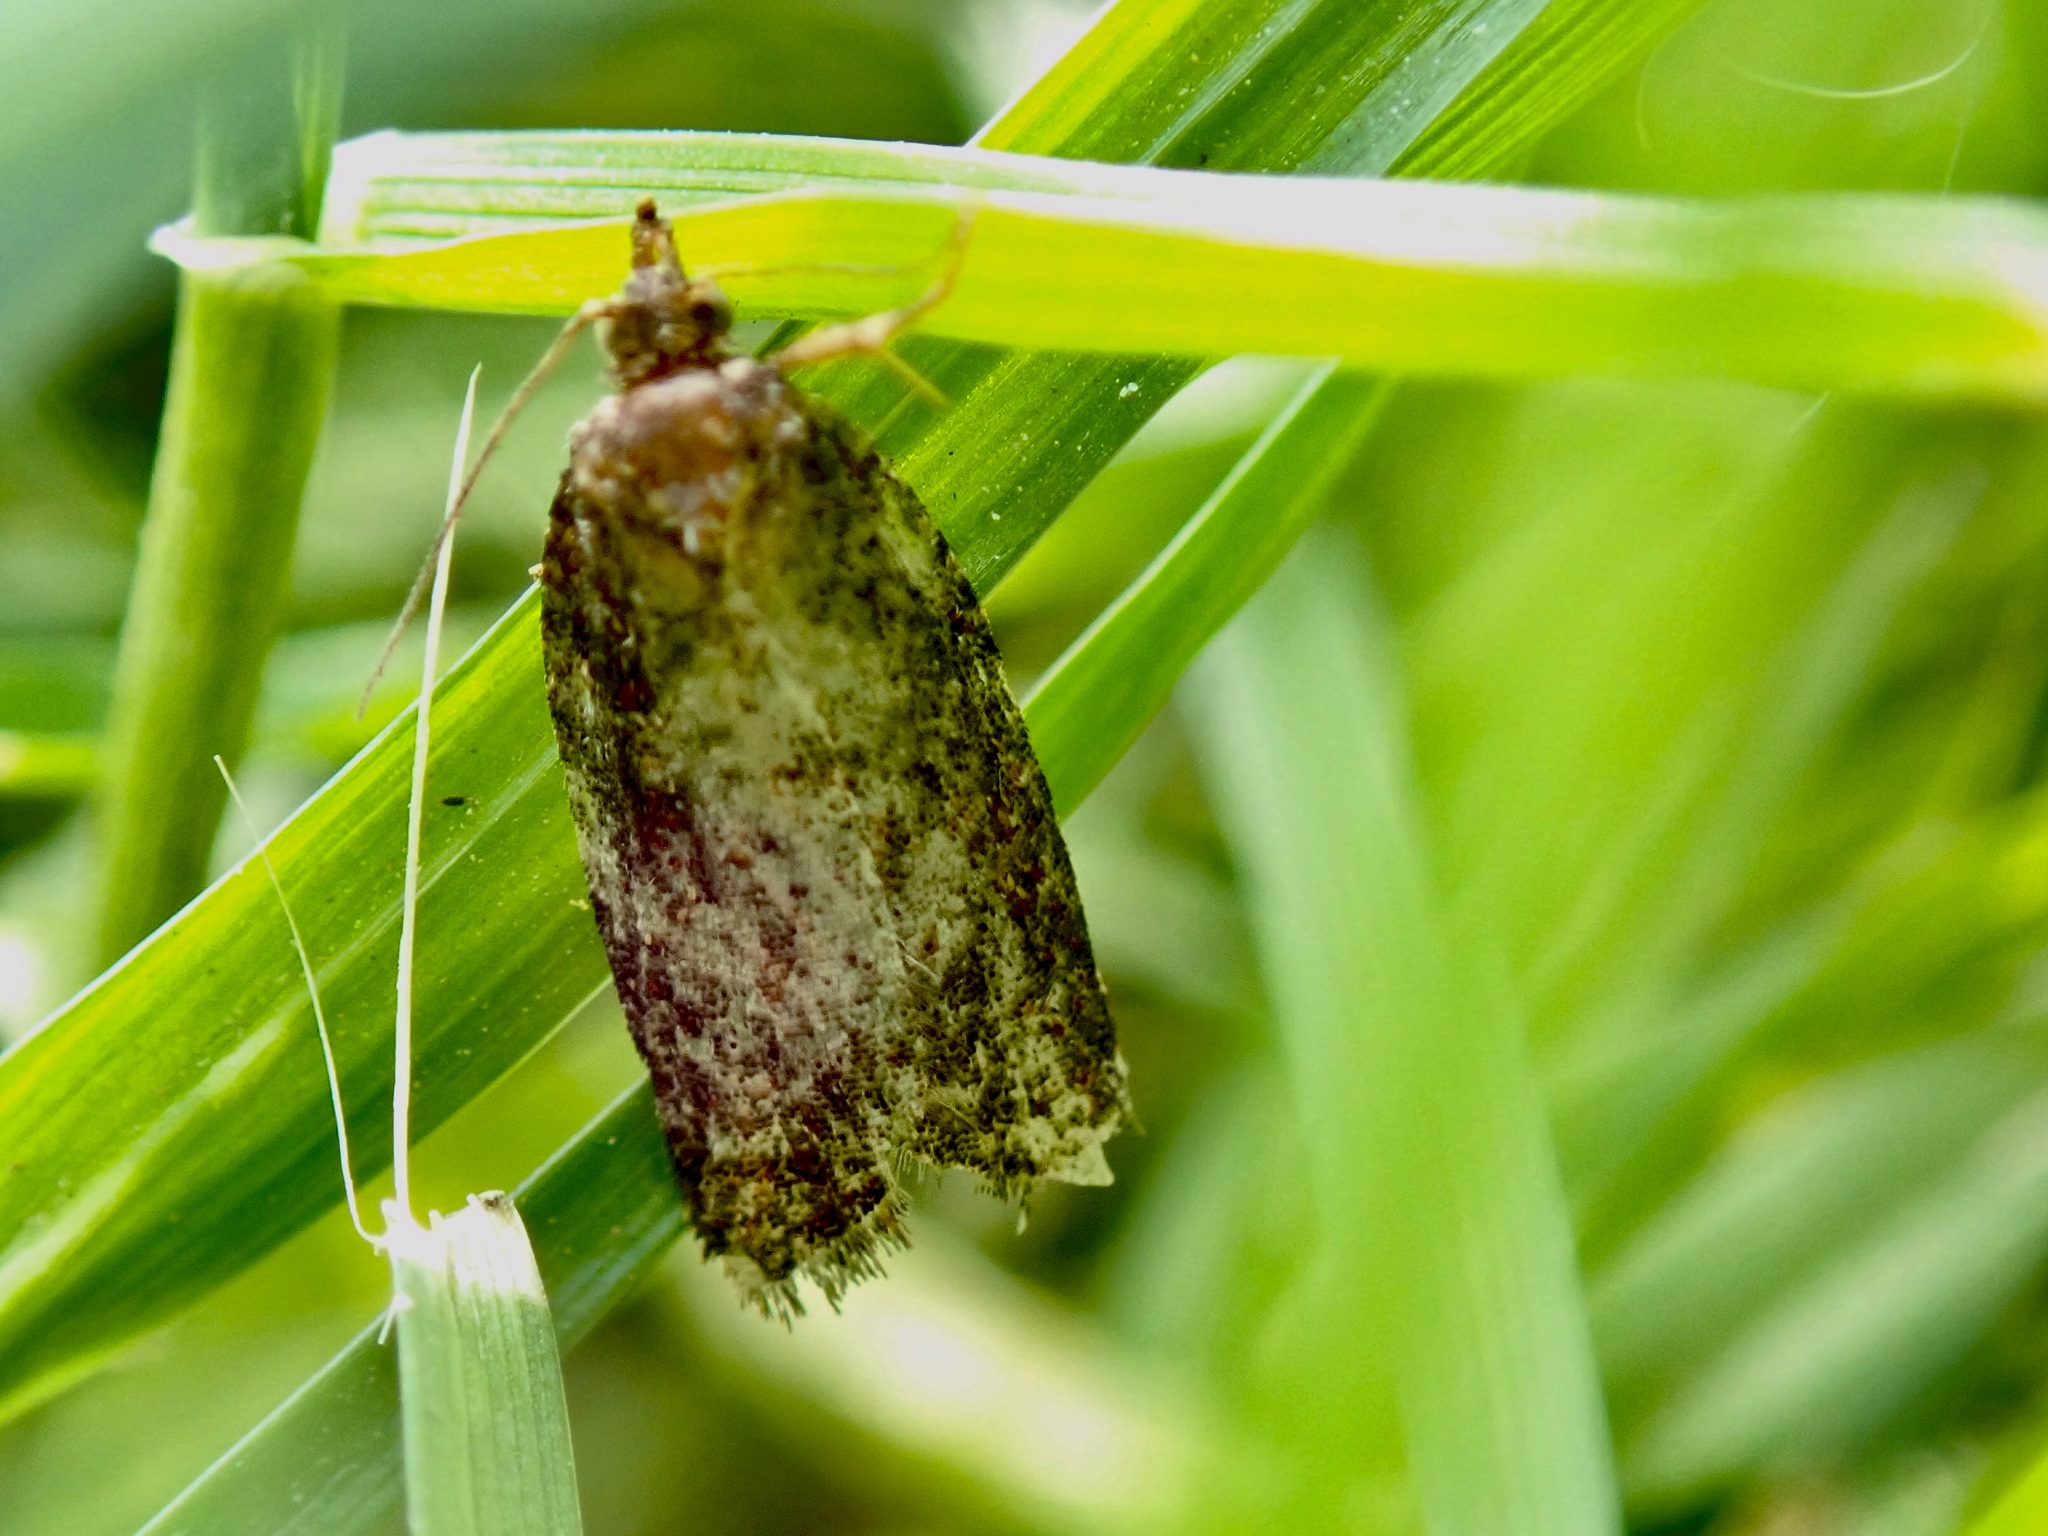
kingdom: Animalia
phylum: Arthropoda
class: Insecta
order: Lepidoptera
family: Tortricidae
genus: Capua
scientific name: Capua intractana
